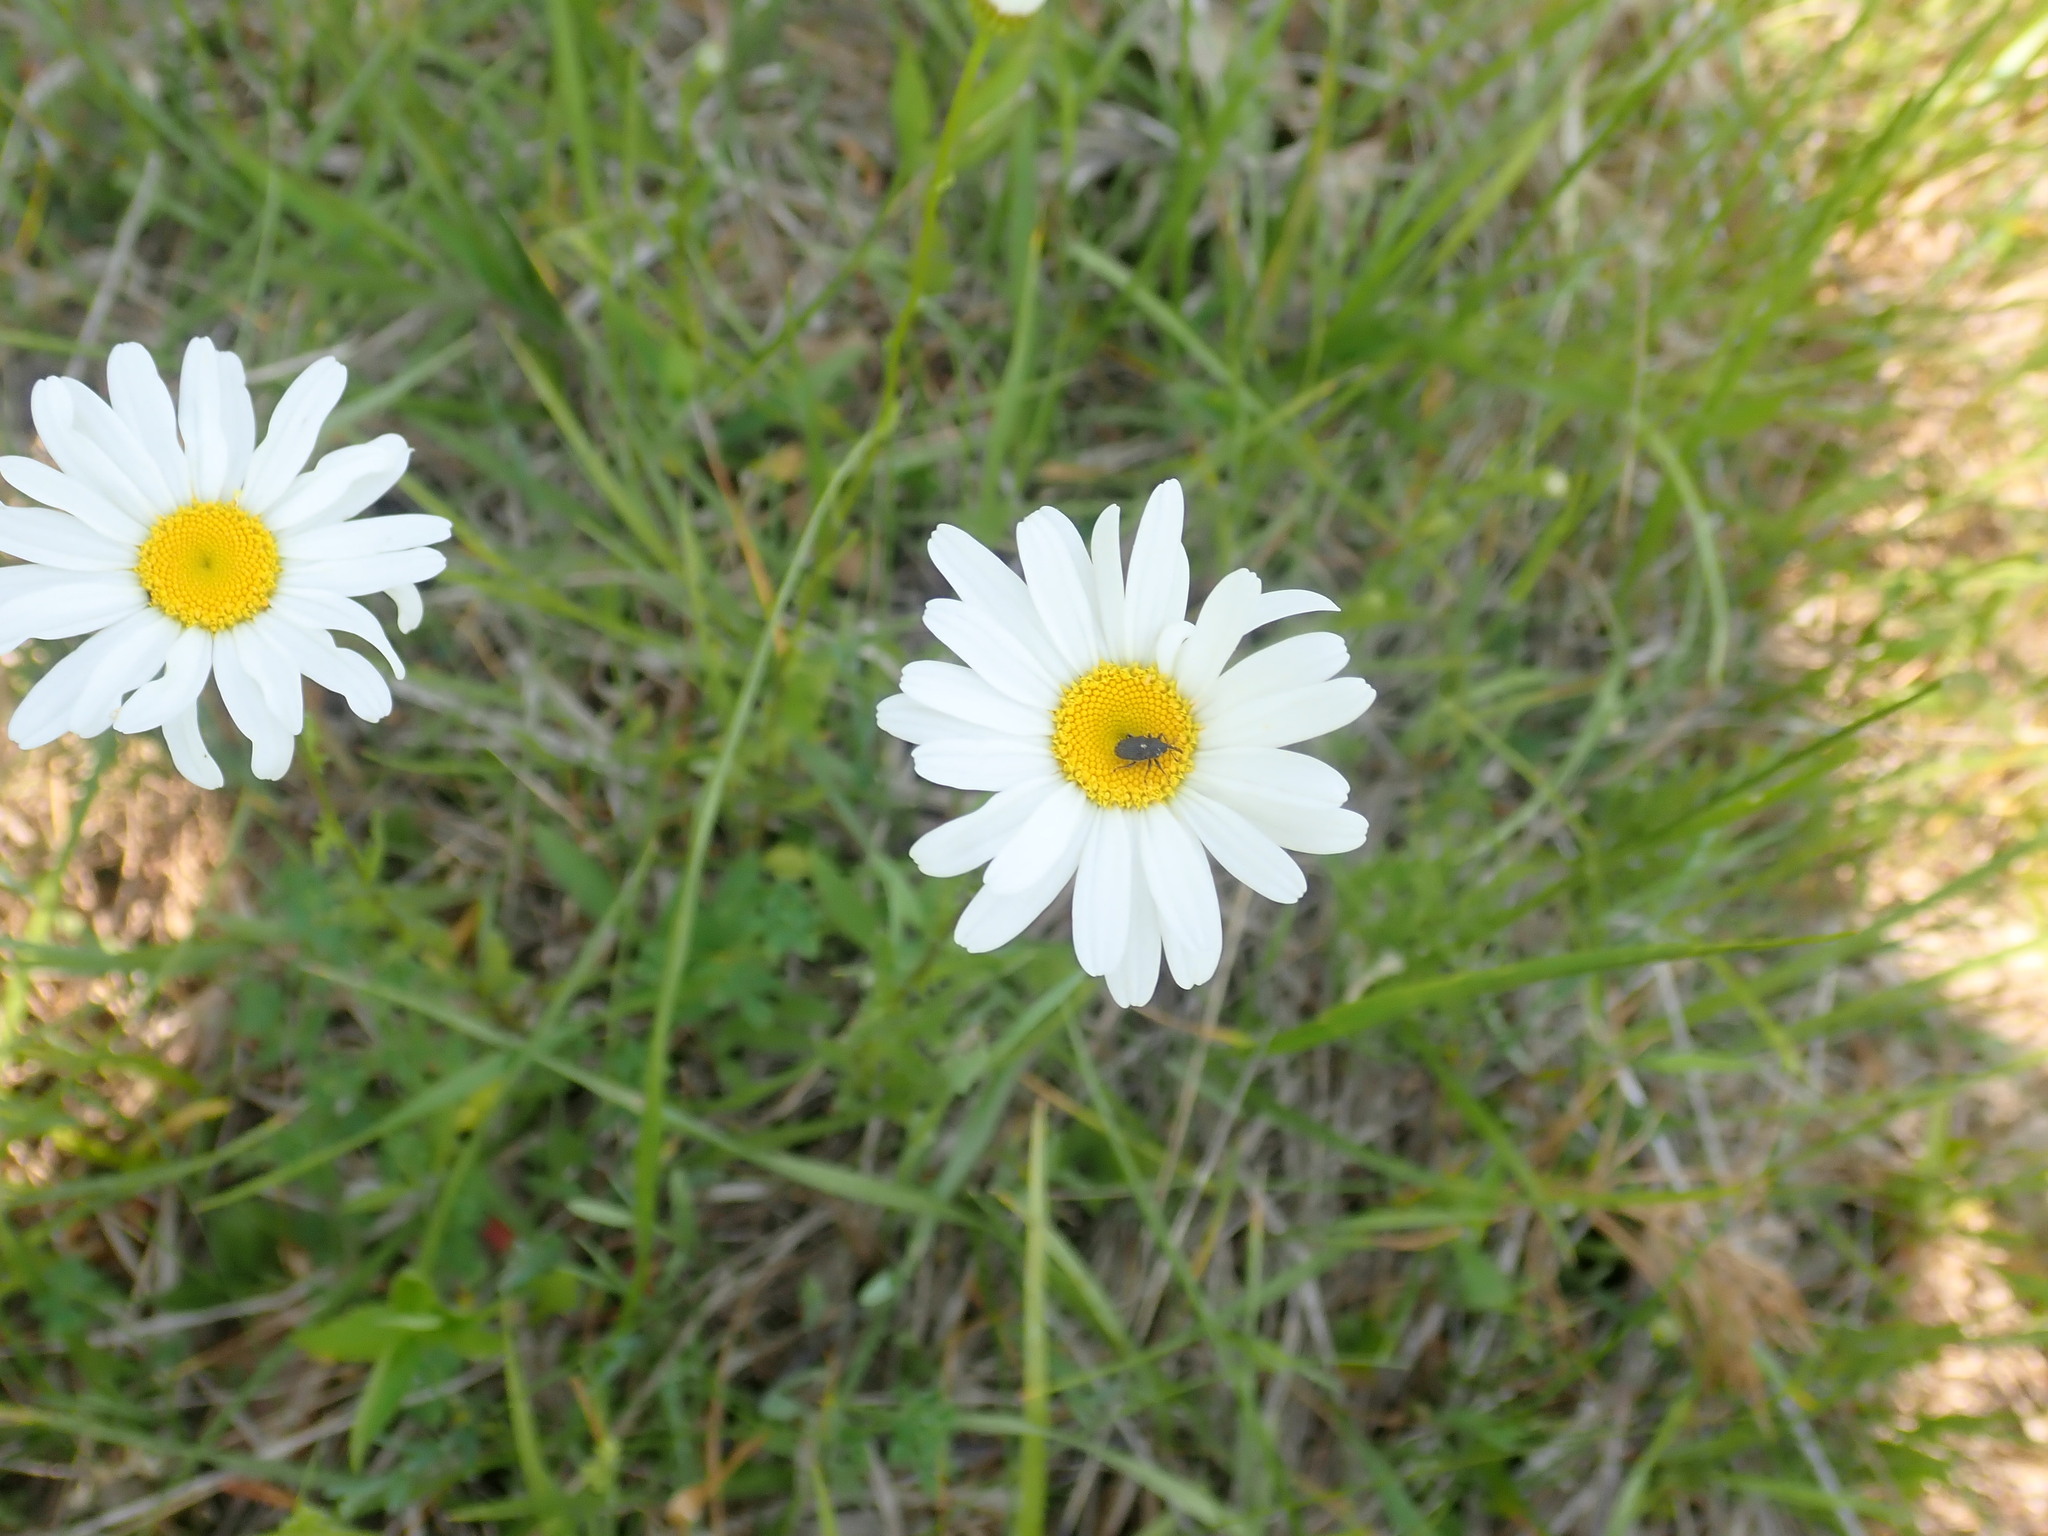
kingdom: Plantae
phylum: Tracheophyta
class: Magnoliopsida
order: Asterales
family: Asteraceae
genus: Leucanthemum
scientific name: Leucanthemum vulgare
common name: Oxeye daisy
